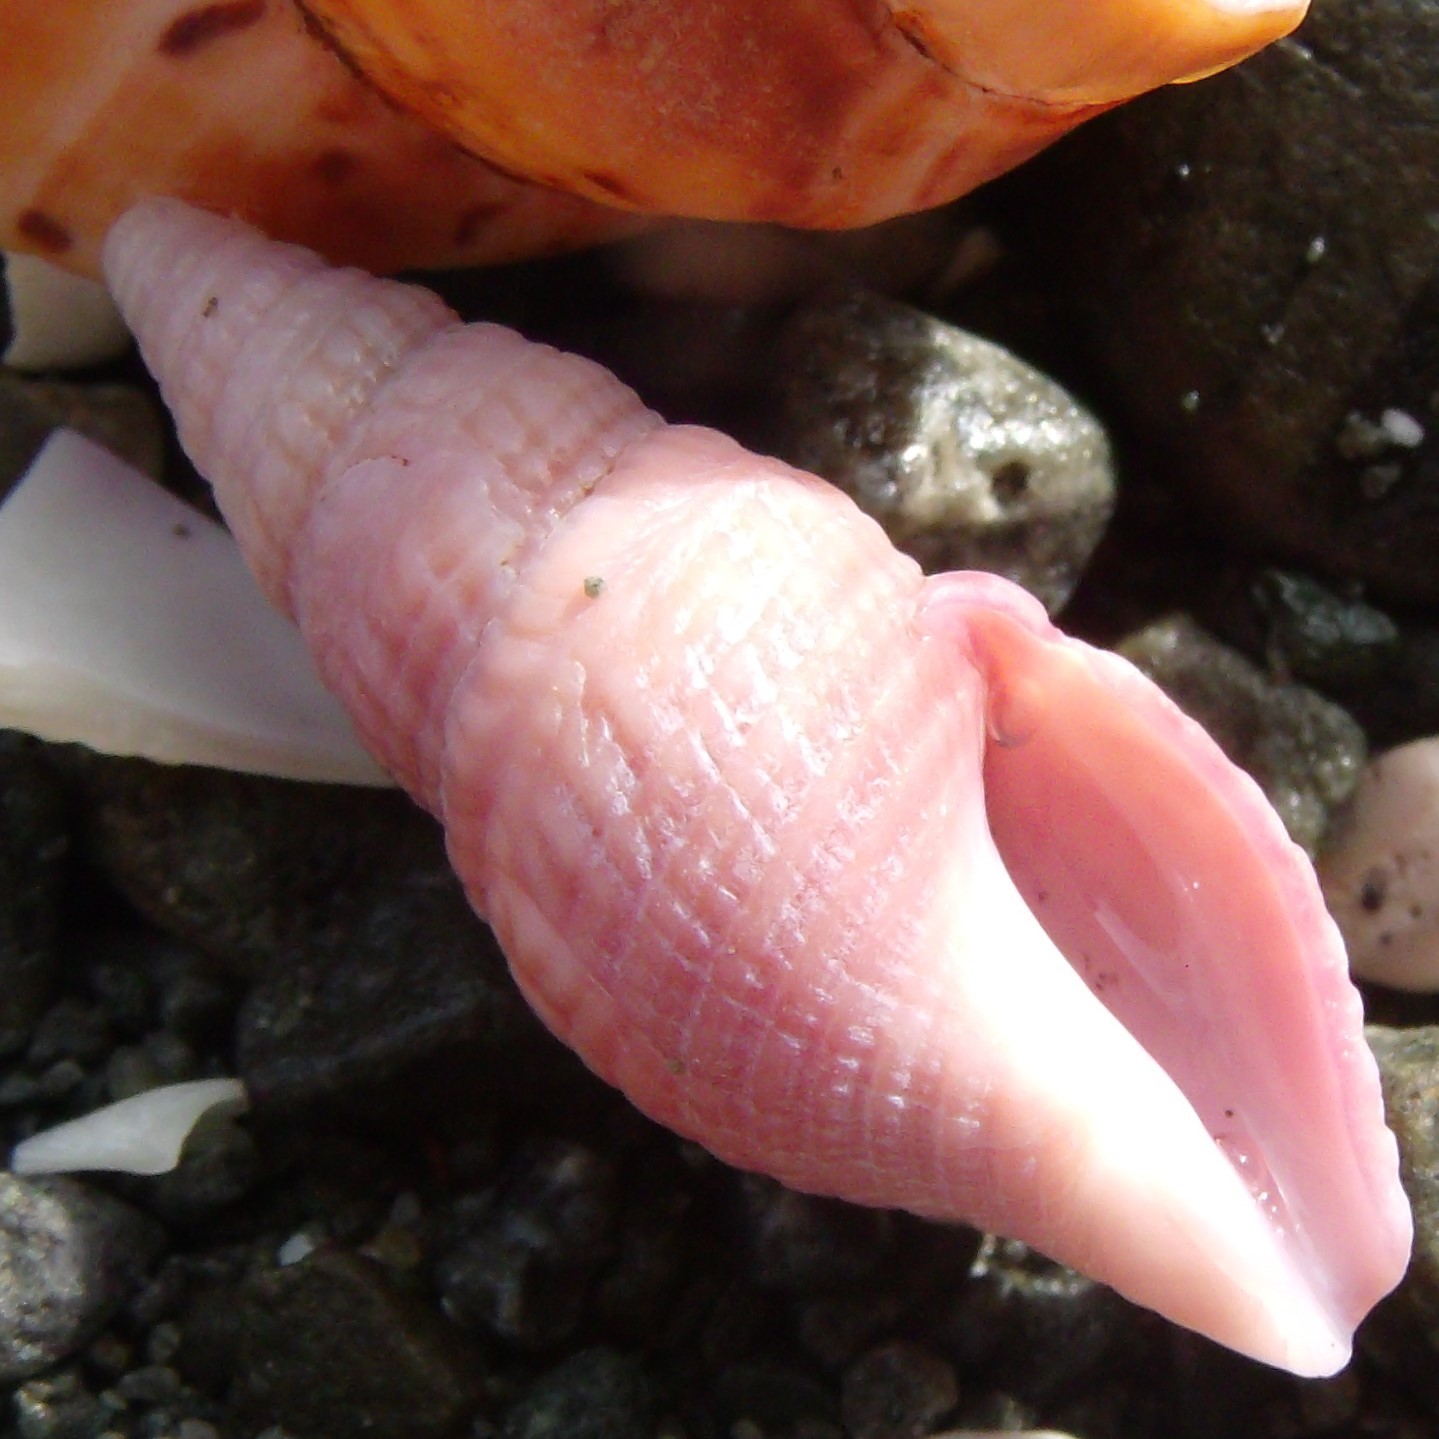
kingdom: Animalia
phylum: Mollusca
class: Gastropoda
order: Neogastropoda
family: Borsoniidae
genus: Phenatoma
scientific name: Phenatoma roseum
